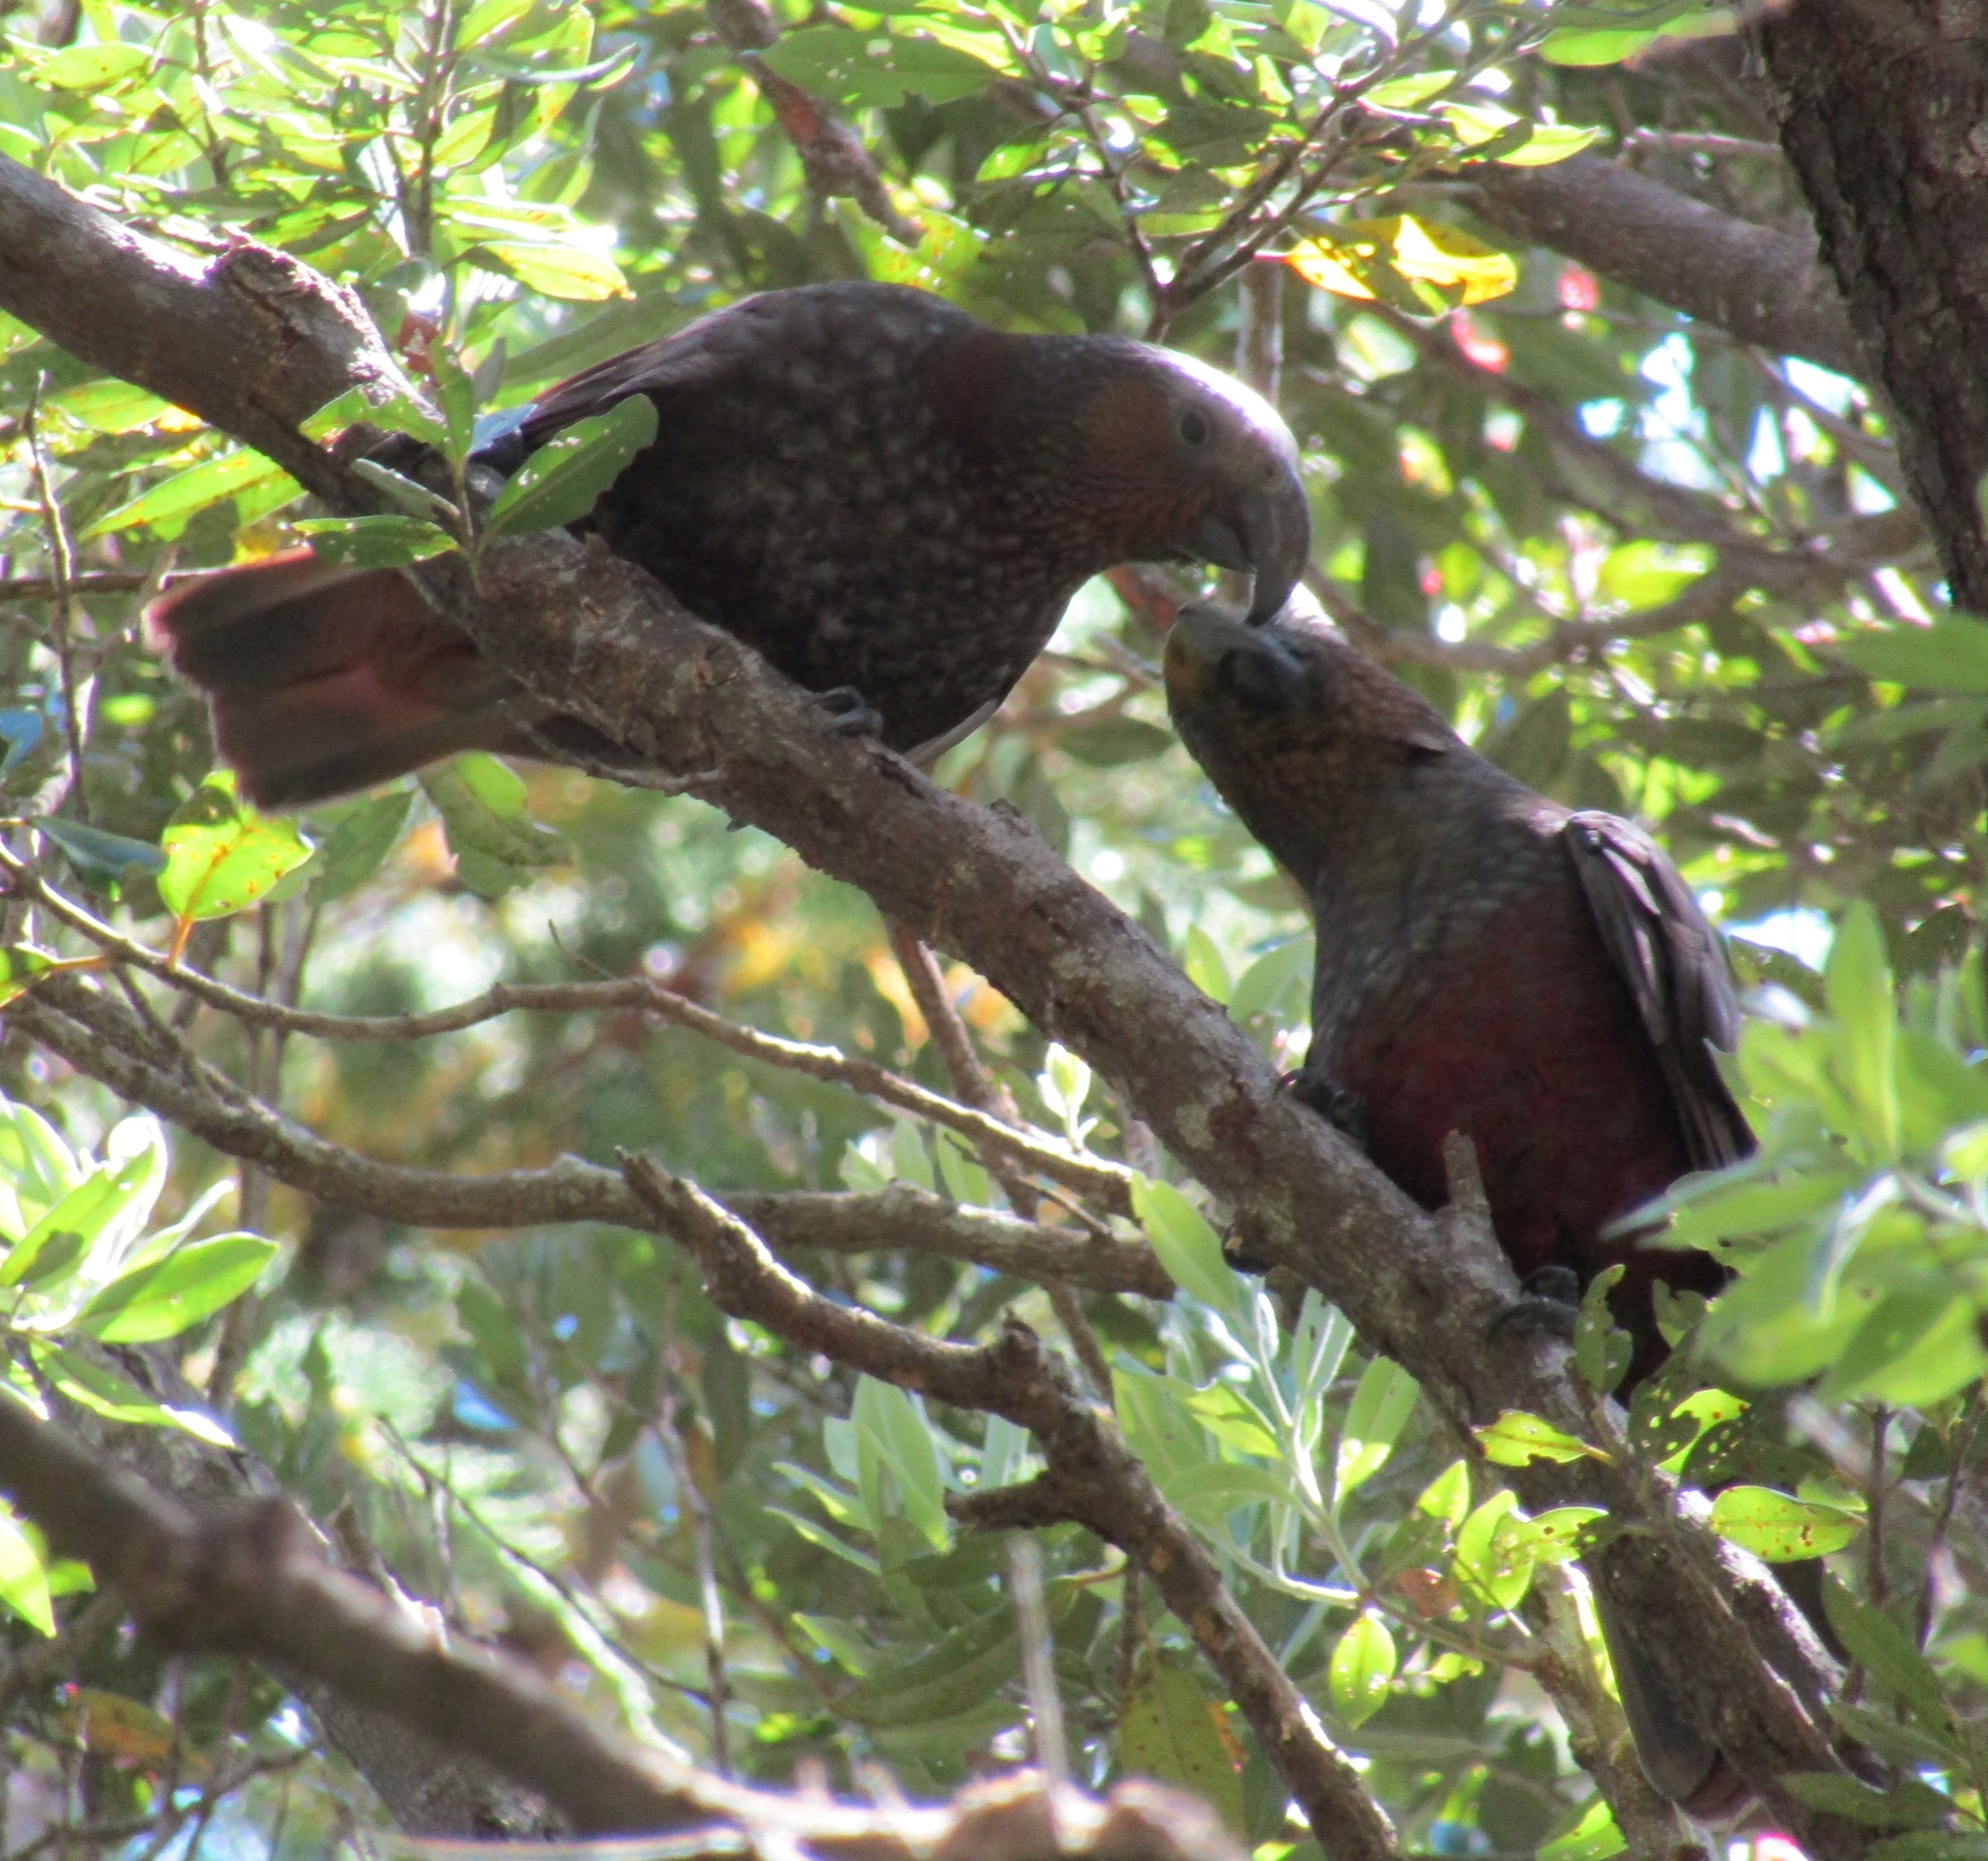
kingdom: Animalia
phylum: Chordata
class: Aves
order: Psittaciformes
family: Psittacidae
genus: Nestor
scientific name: Nestor meridionalis
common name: New zealand kaka
